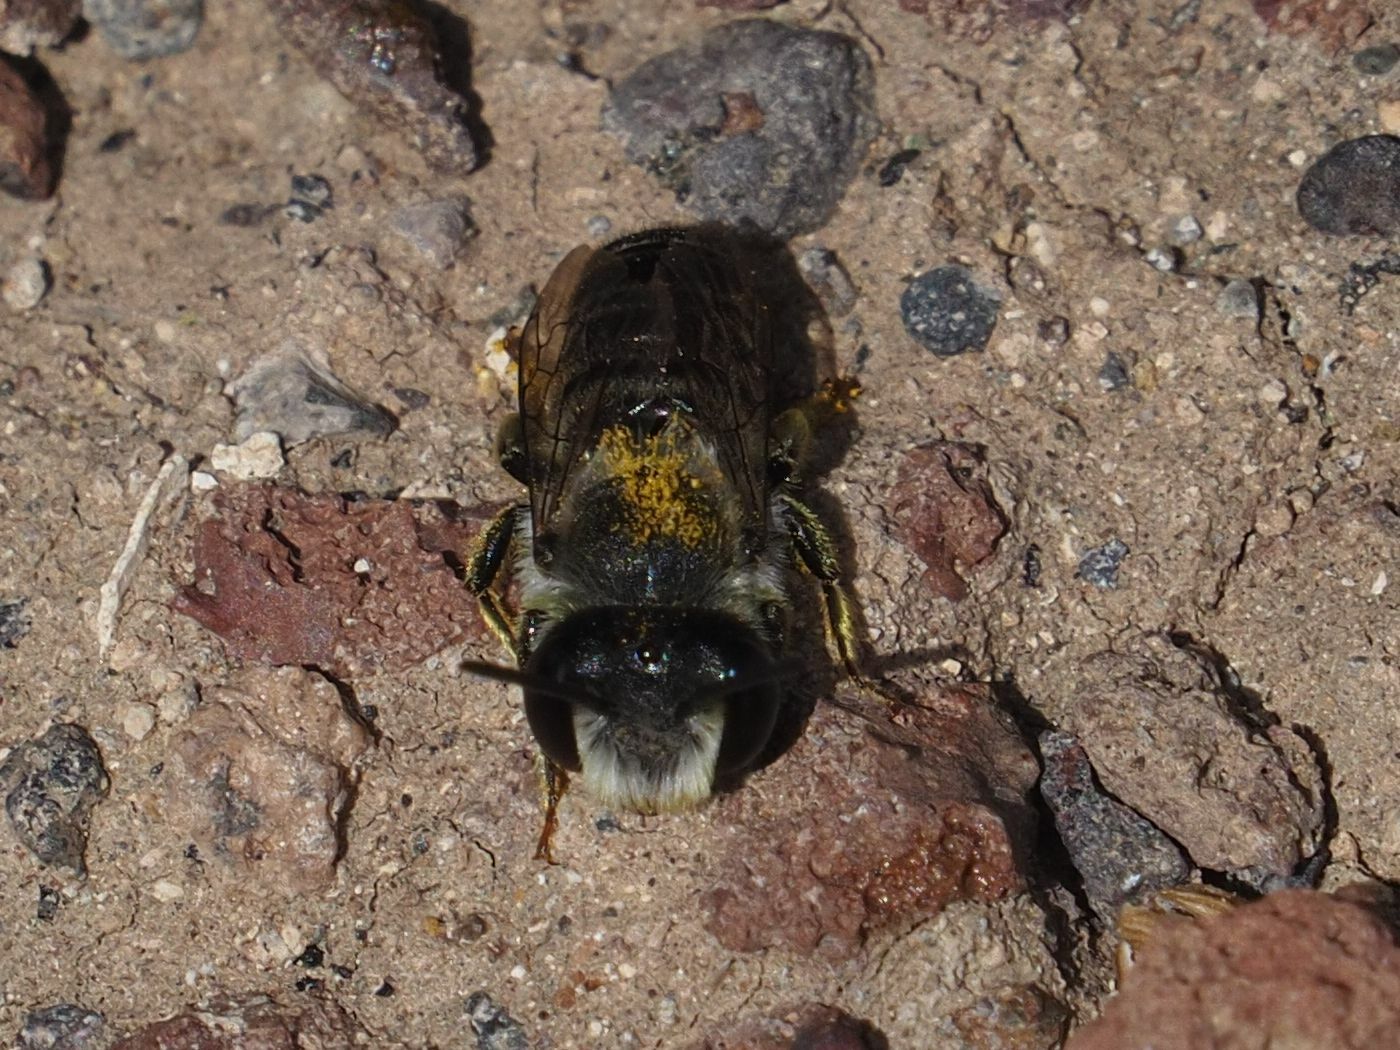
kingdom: Animalia
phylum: Arthropoda
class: Insecta
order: Hymenoptera
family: Megachilidae
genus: Megachile
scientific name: Megachile canariensis
